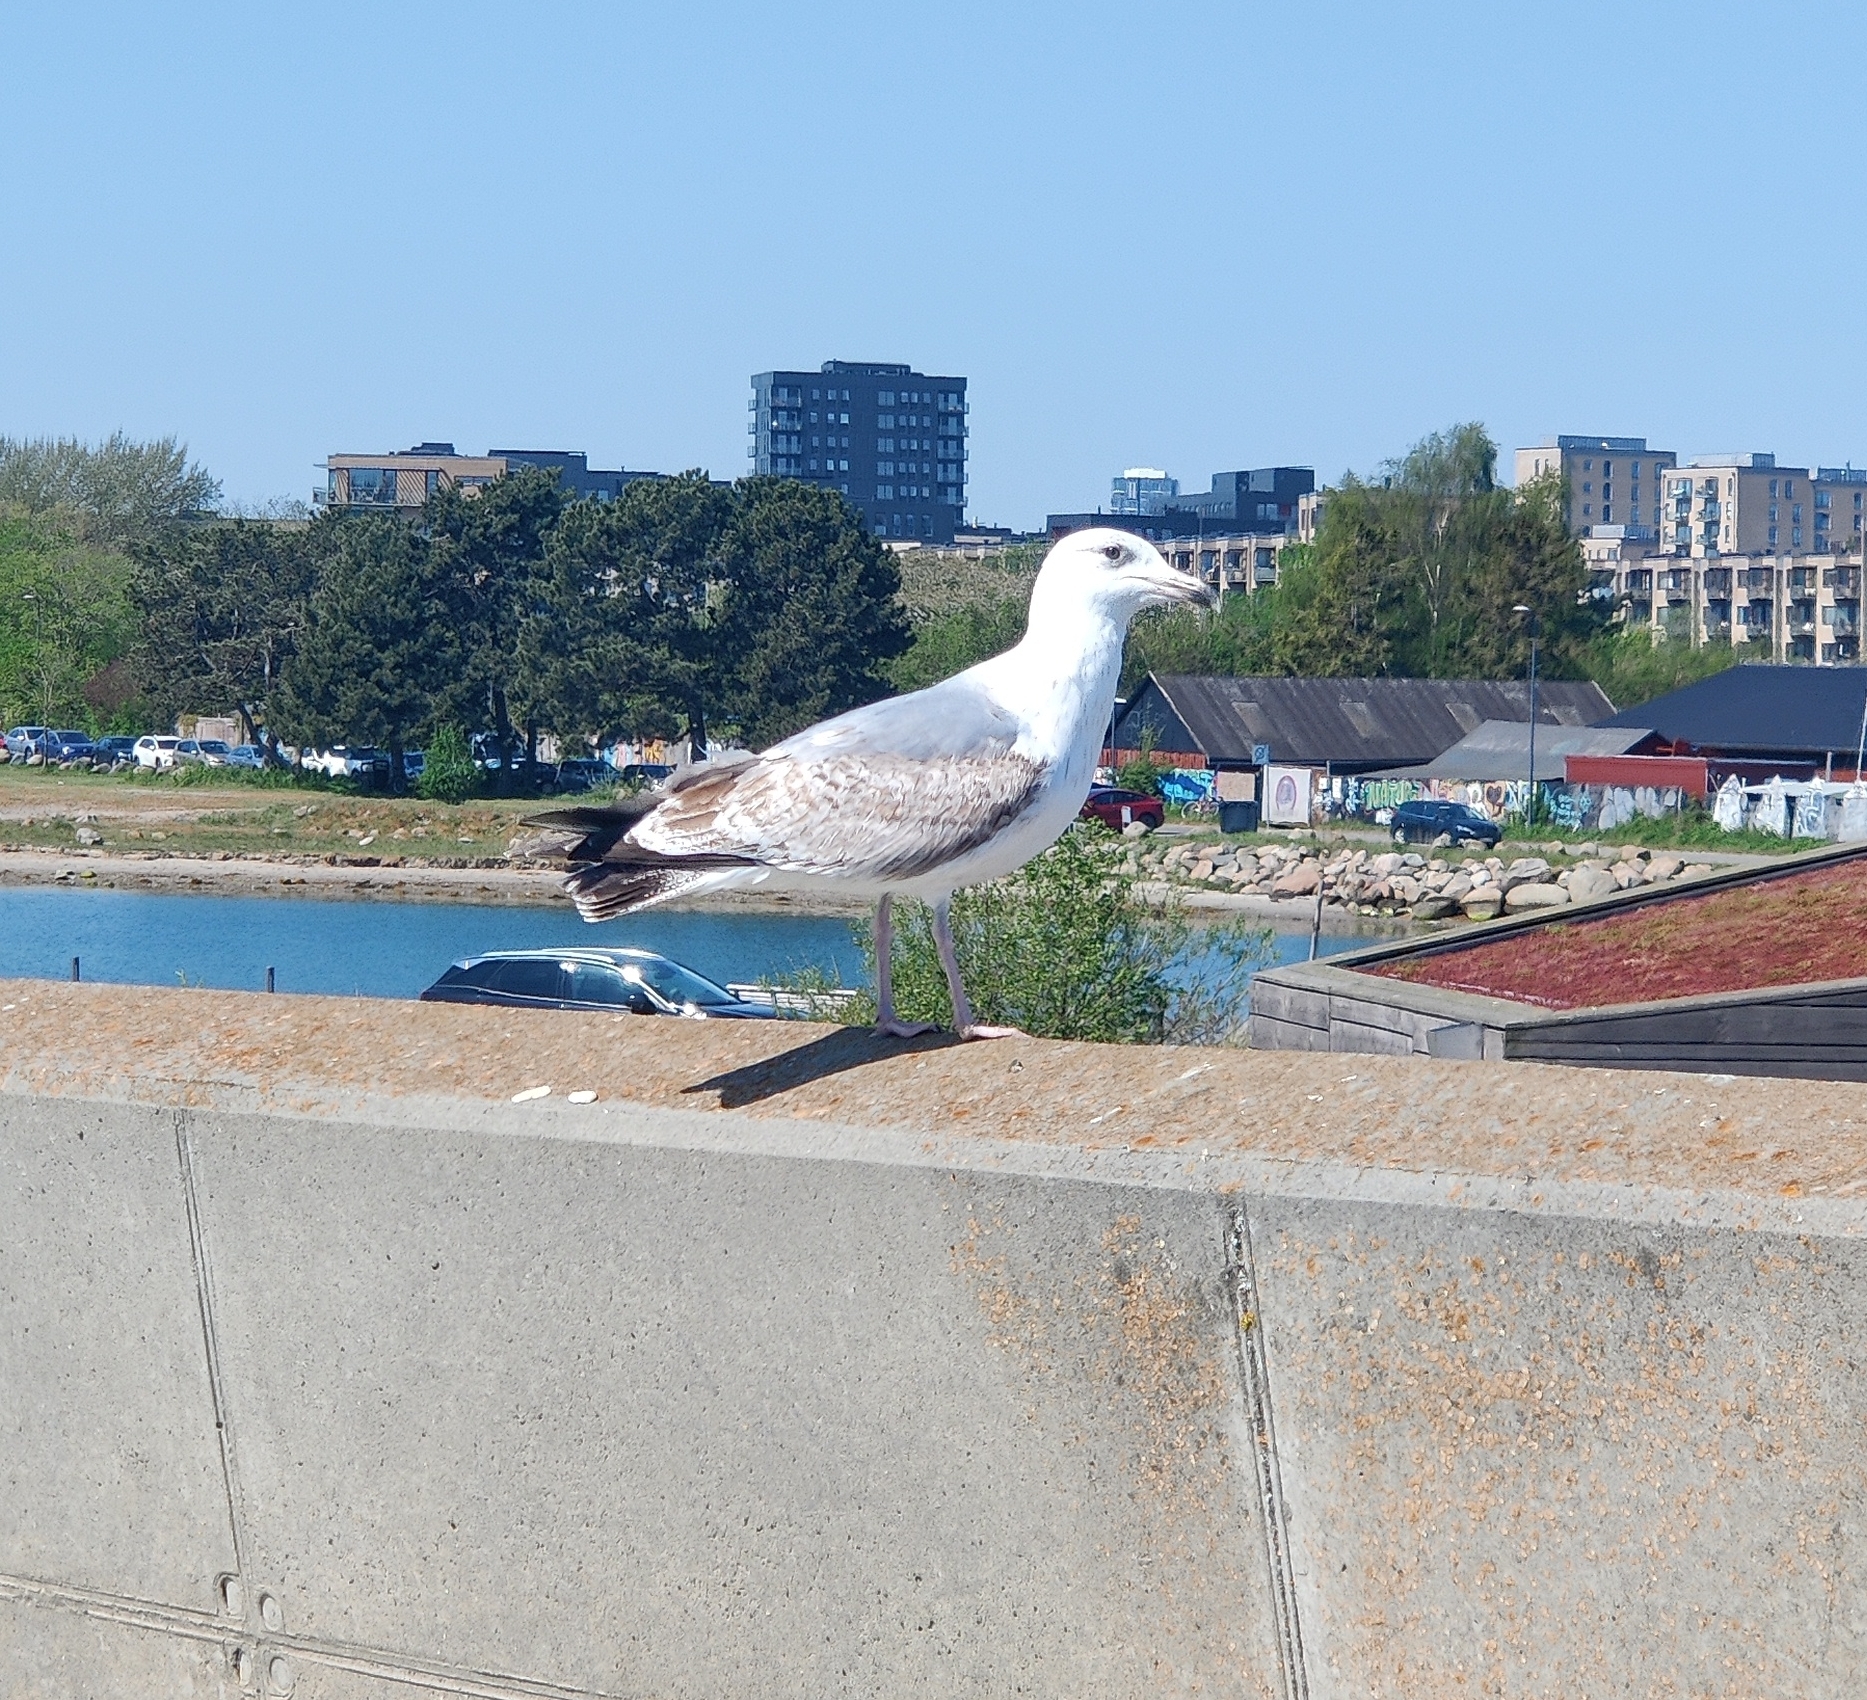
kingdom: Animalia
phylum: Chordata
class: Aves
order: Charadriiformes
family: Laridae
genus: Larus
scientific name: Larus argentatus
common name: Herring gull
